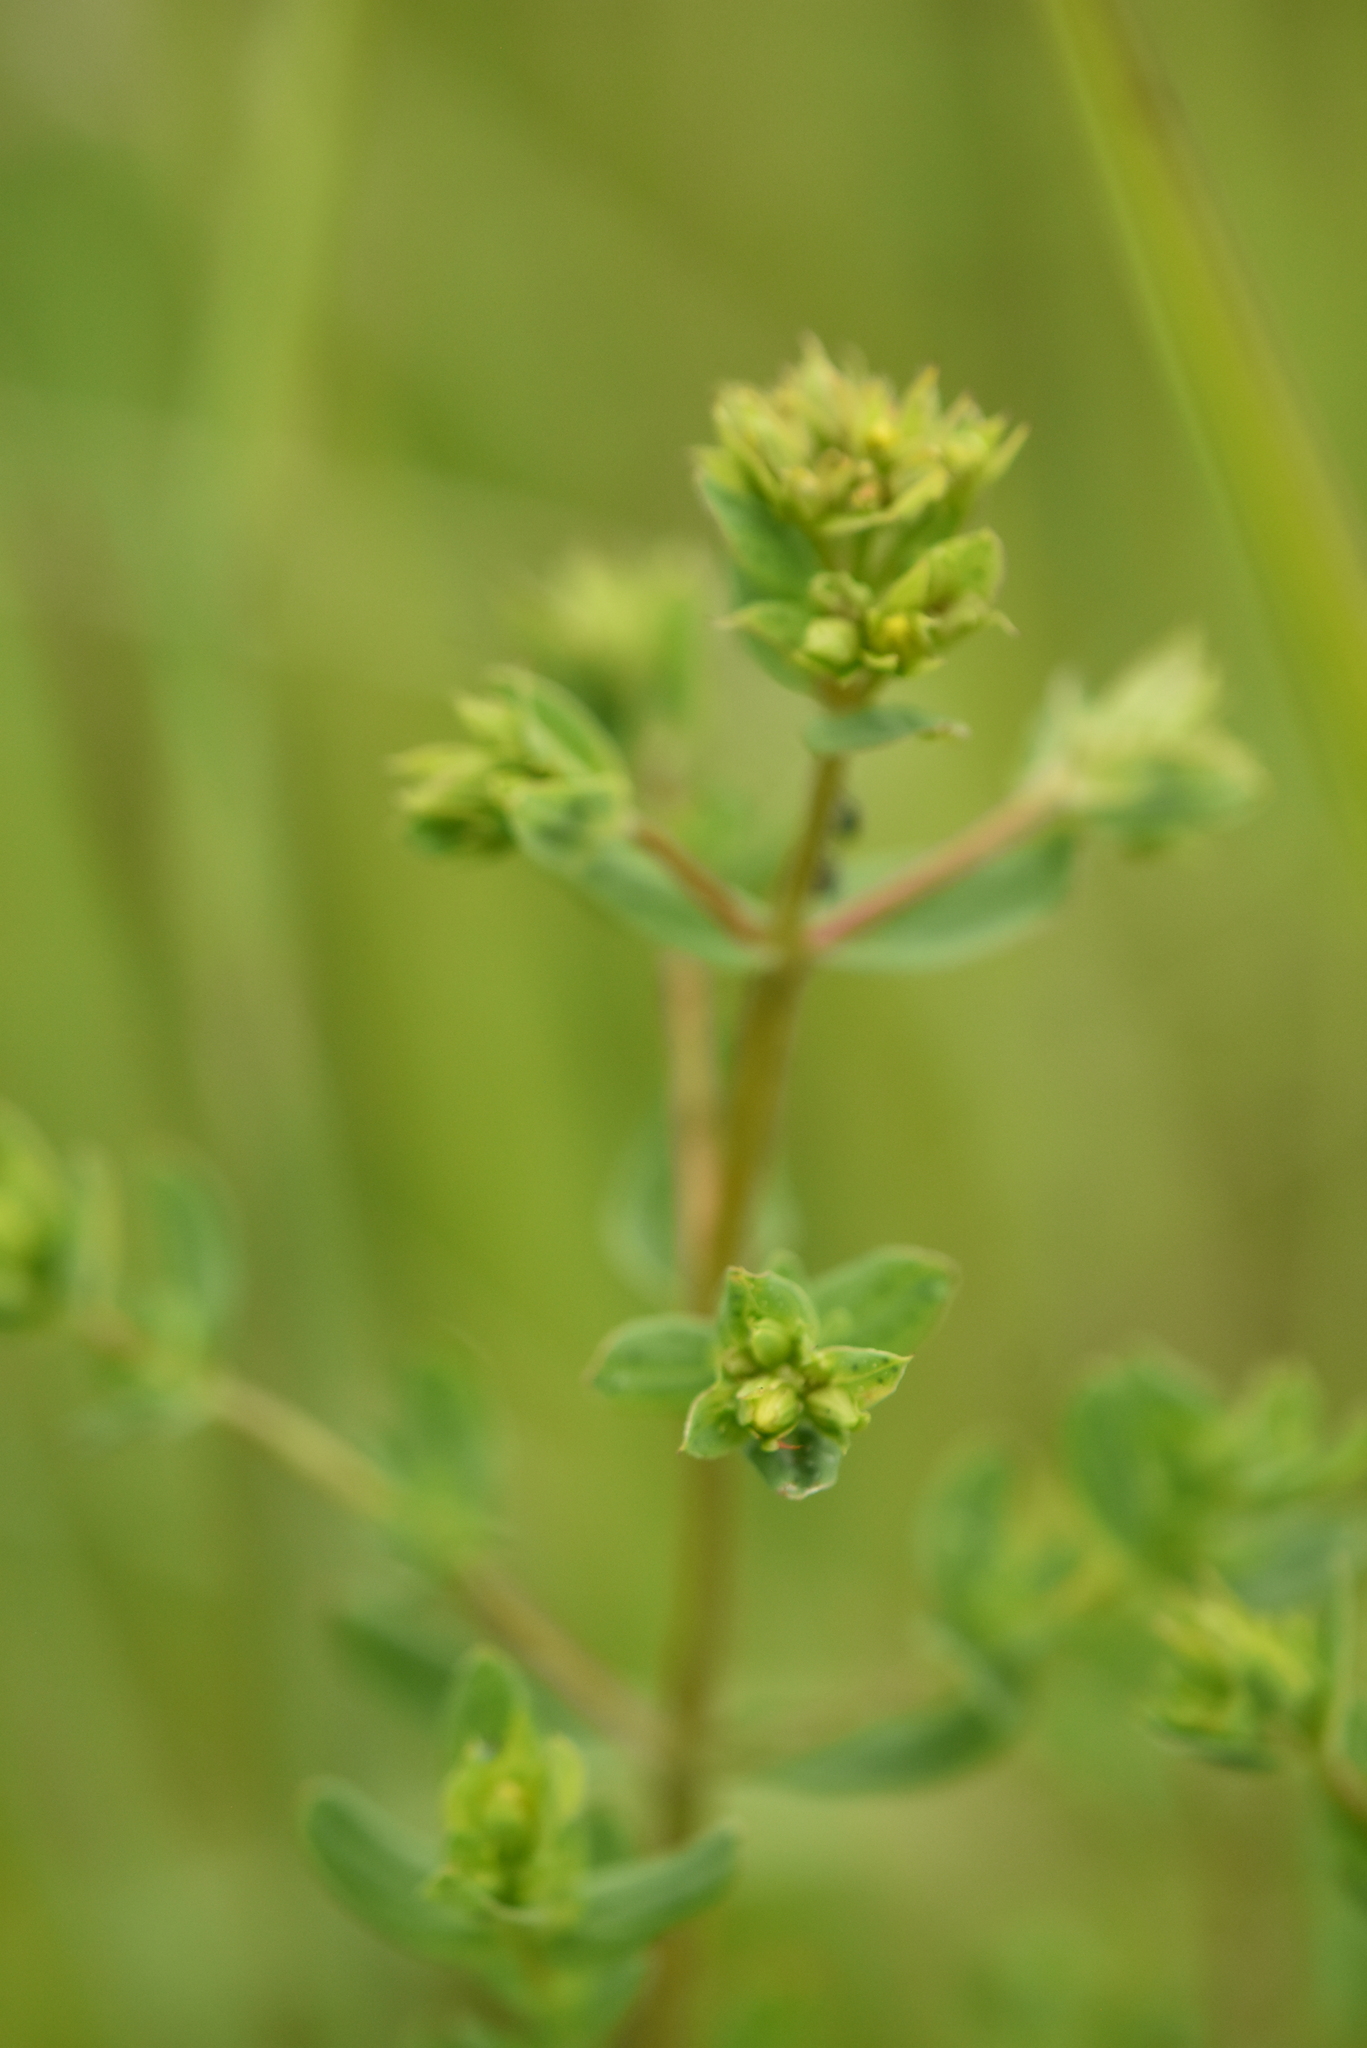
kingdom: Plantae
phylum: Tracheophyta
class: Magnoliopsida
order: Malpighiales
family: Hypericaceae
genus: Hypericum
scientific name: Hypericum perforatum
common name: Common st. johnswort
